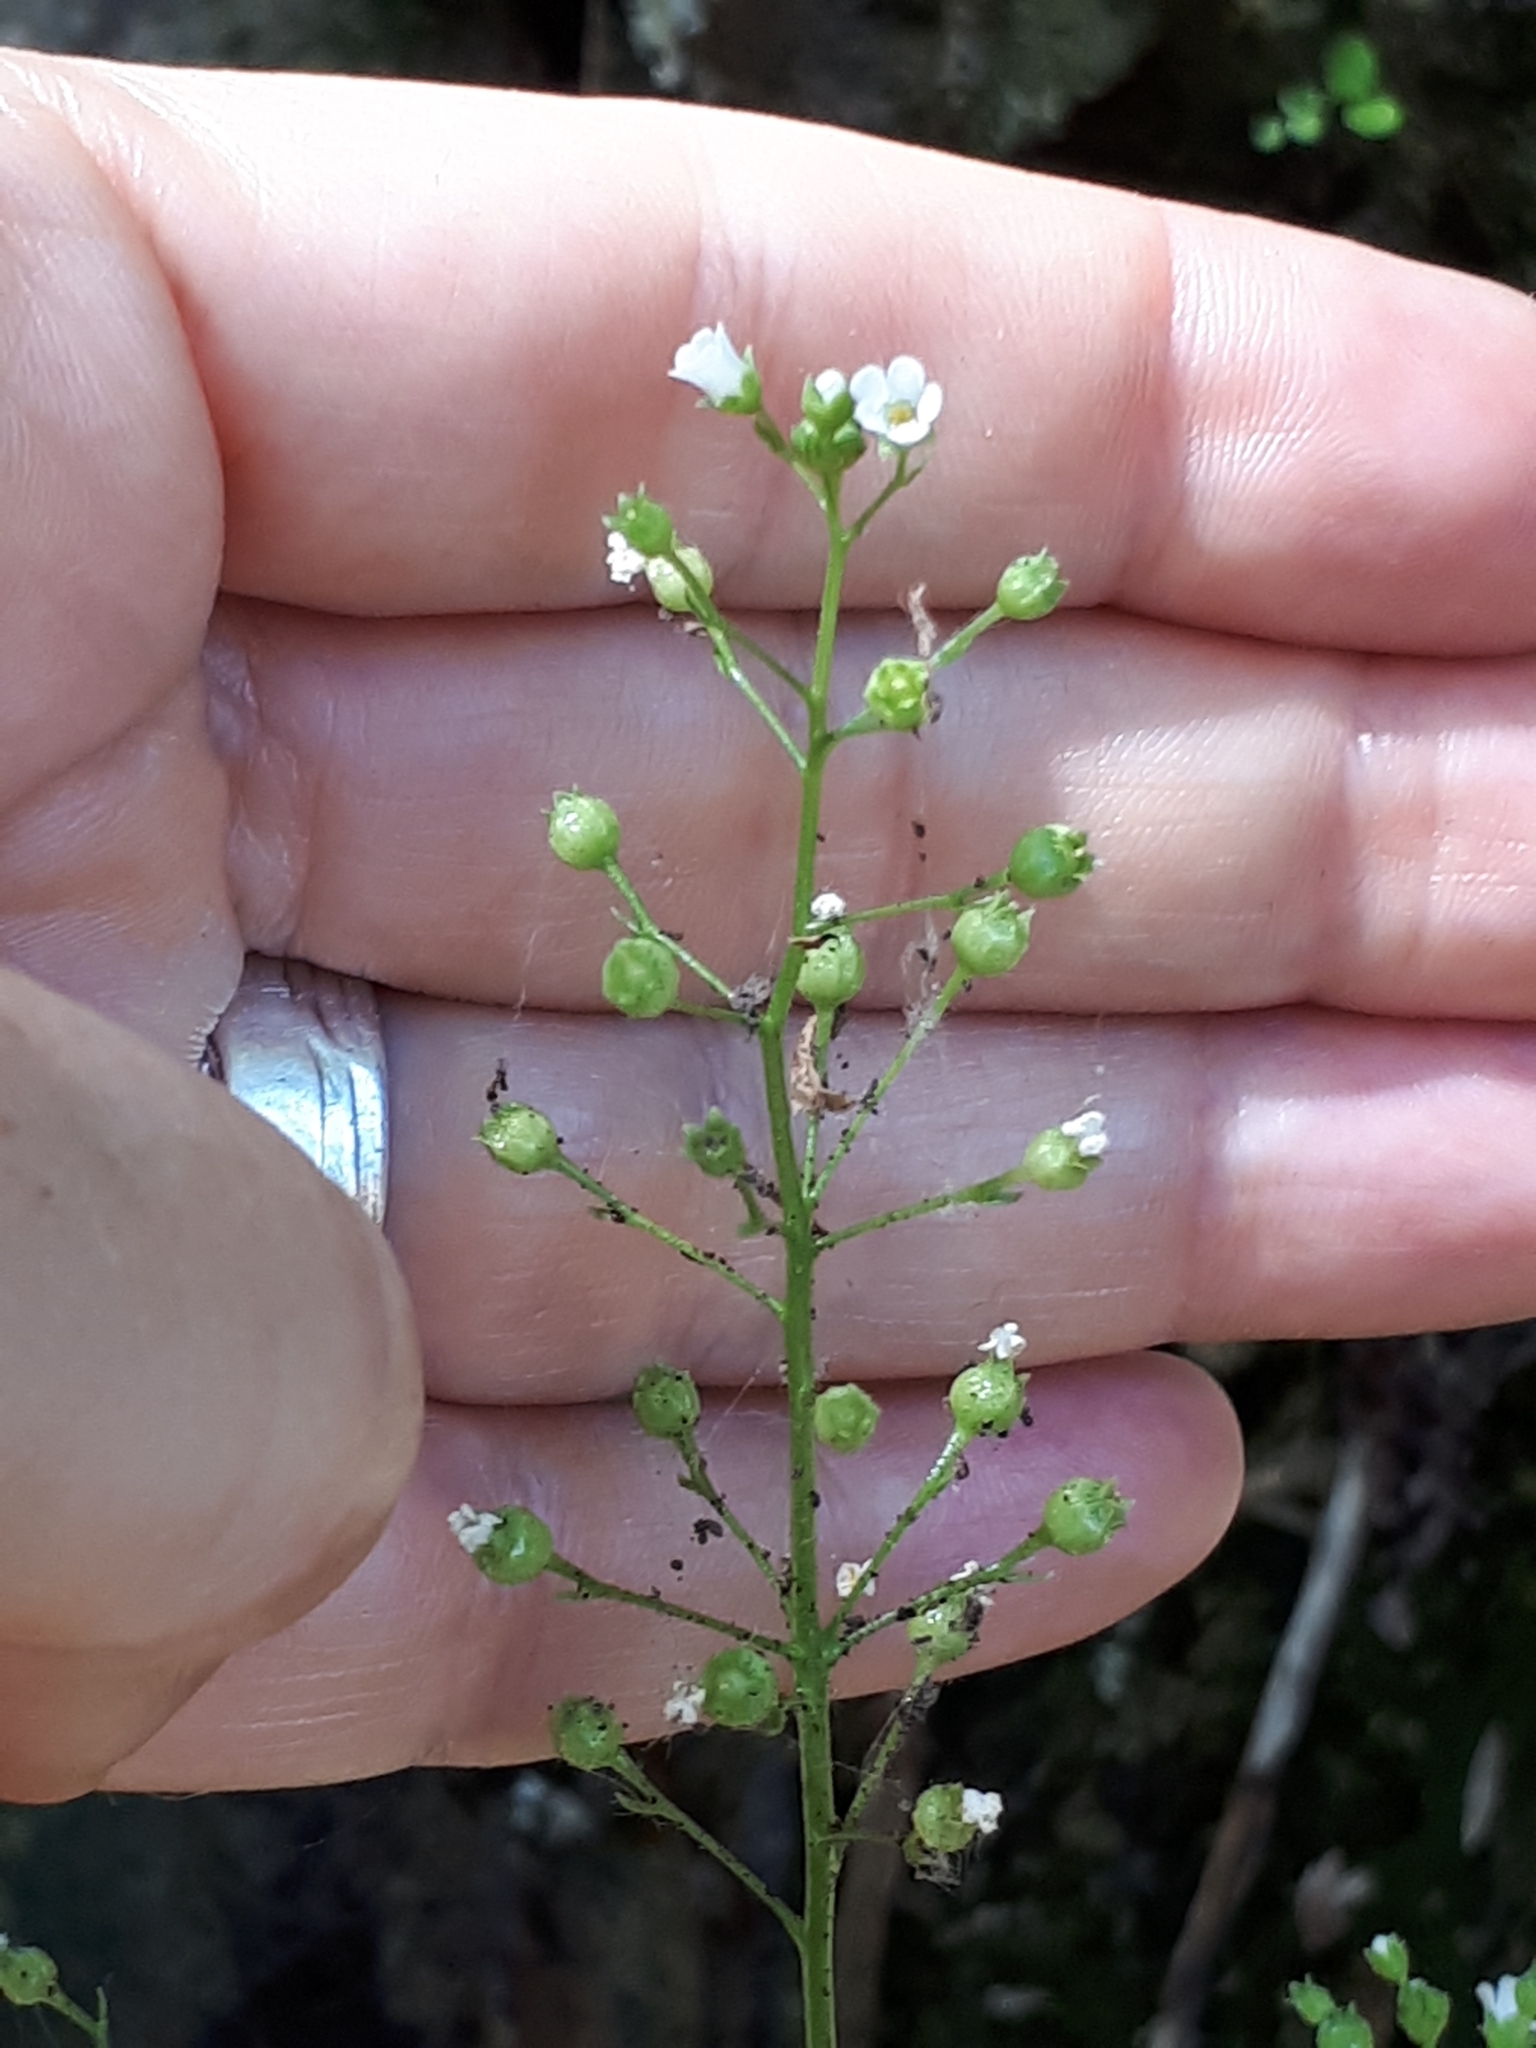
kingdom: Plantae
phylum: Tracheophyta
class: Magnoliopsida
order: Ericales
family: Primulaceae
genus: Samolus
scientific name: Samolus valerandi
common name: Brookweed
